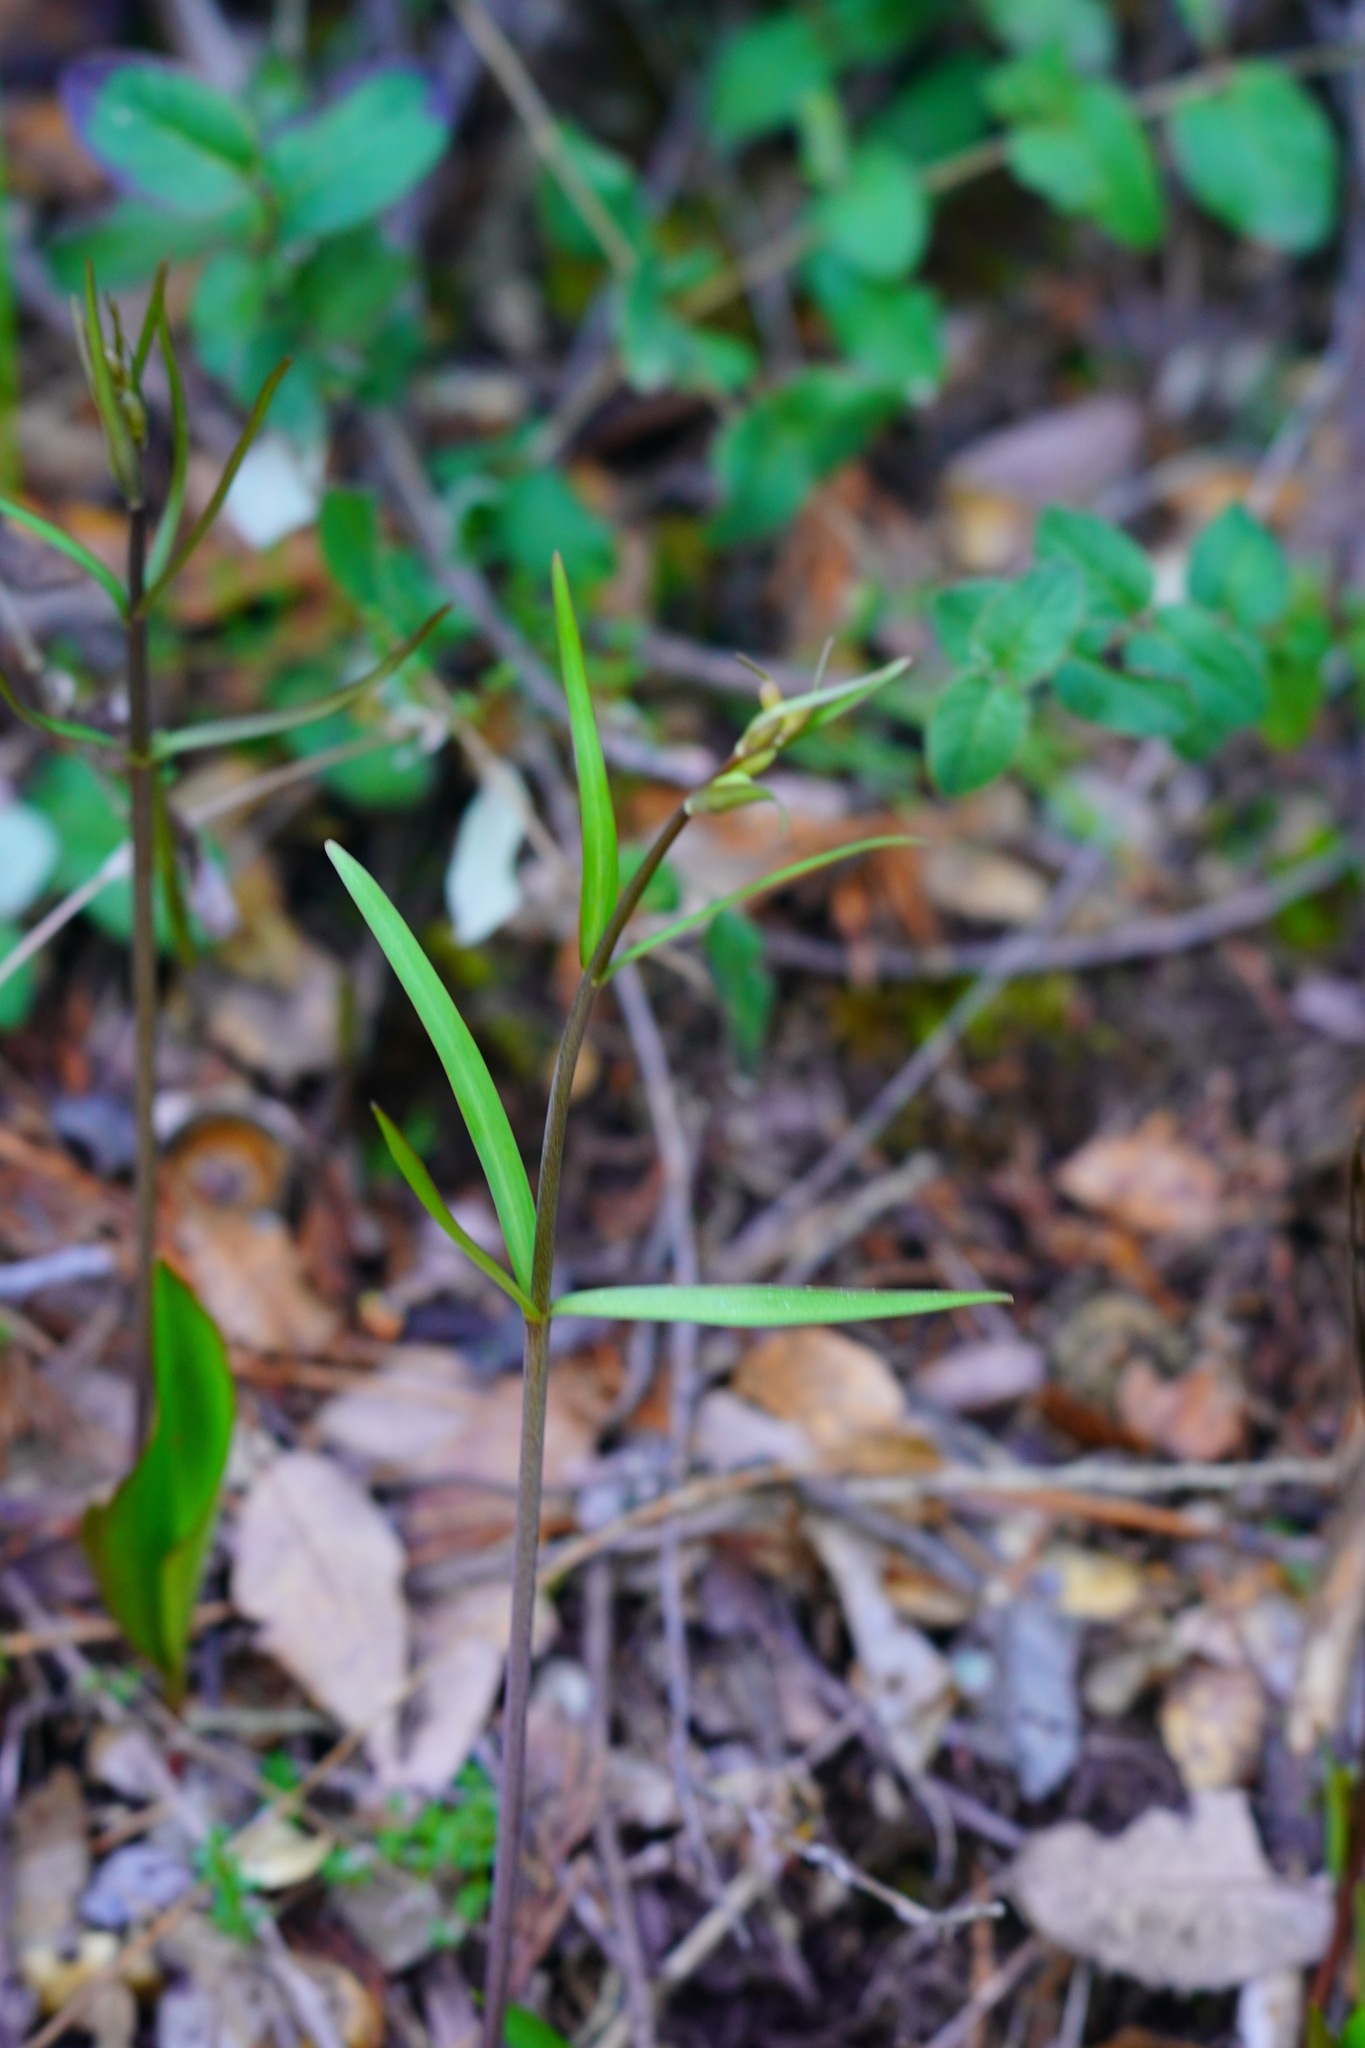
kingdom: Plantae
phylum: Tracheophyta
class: Liliopsida
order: Liliales
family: Liliaceae
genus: Fritillaria
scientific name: Fritillaria micrantha
